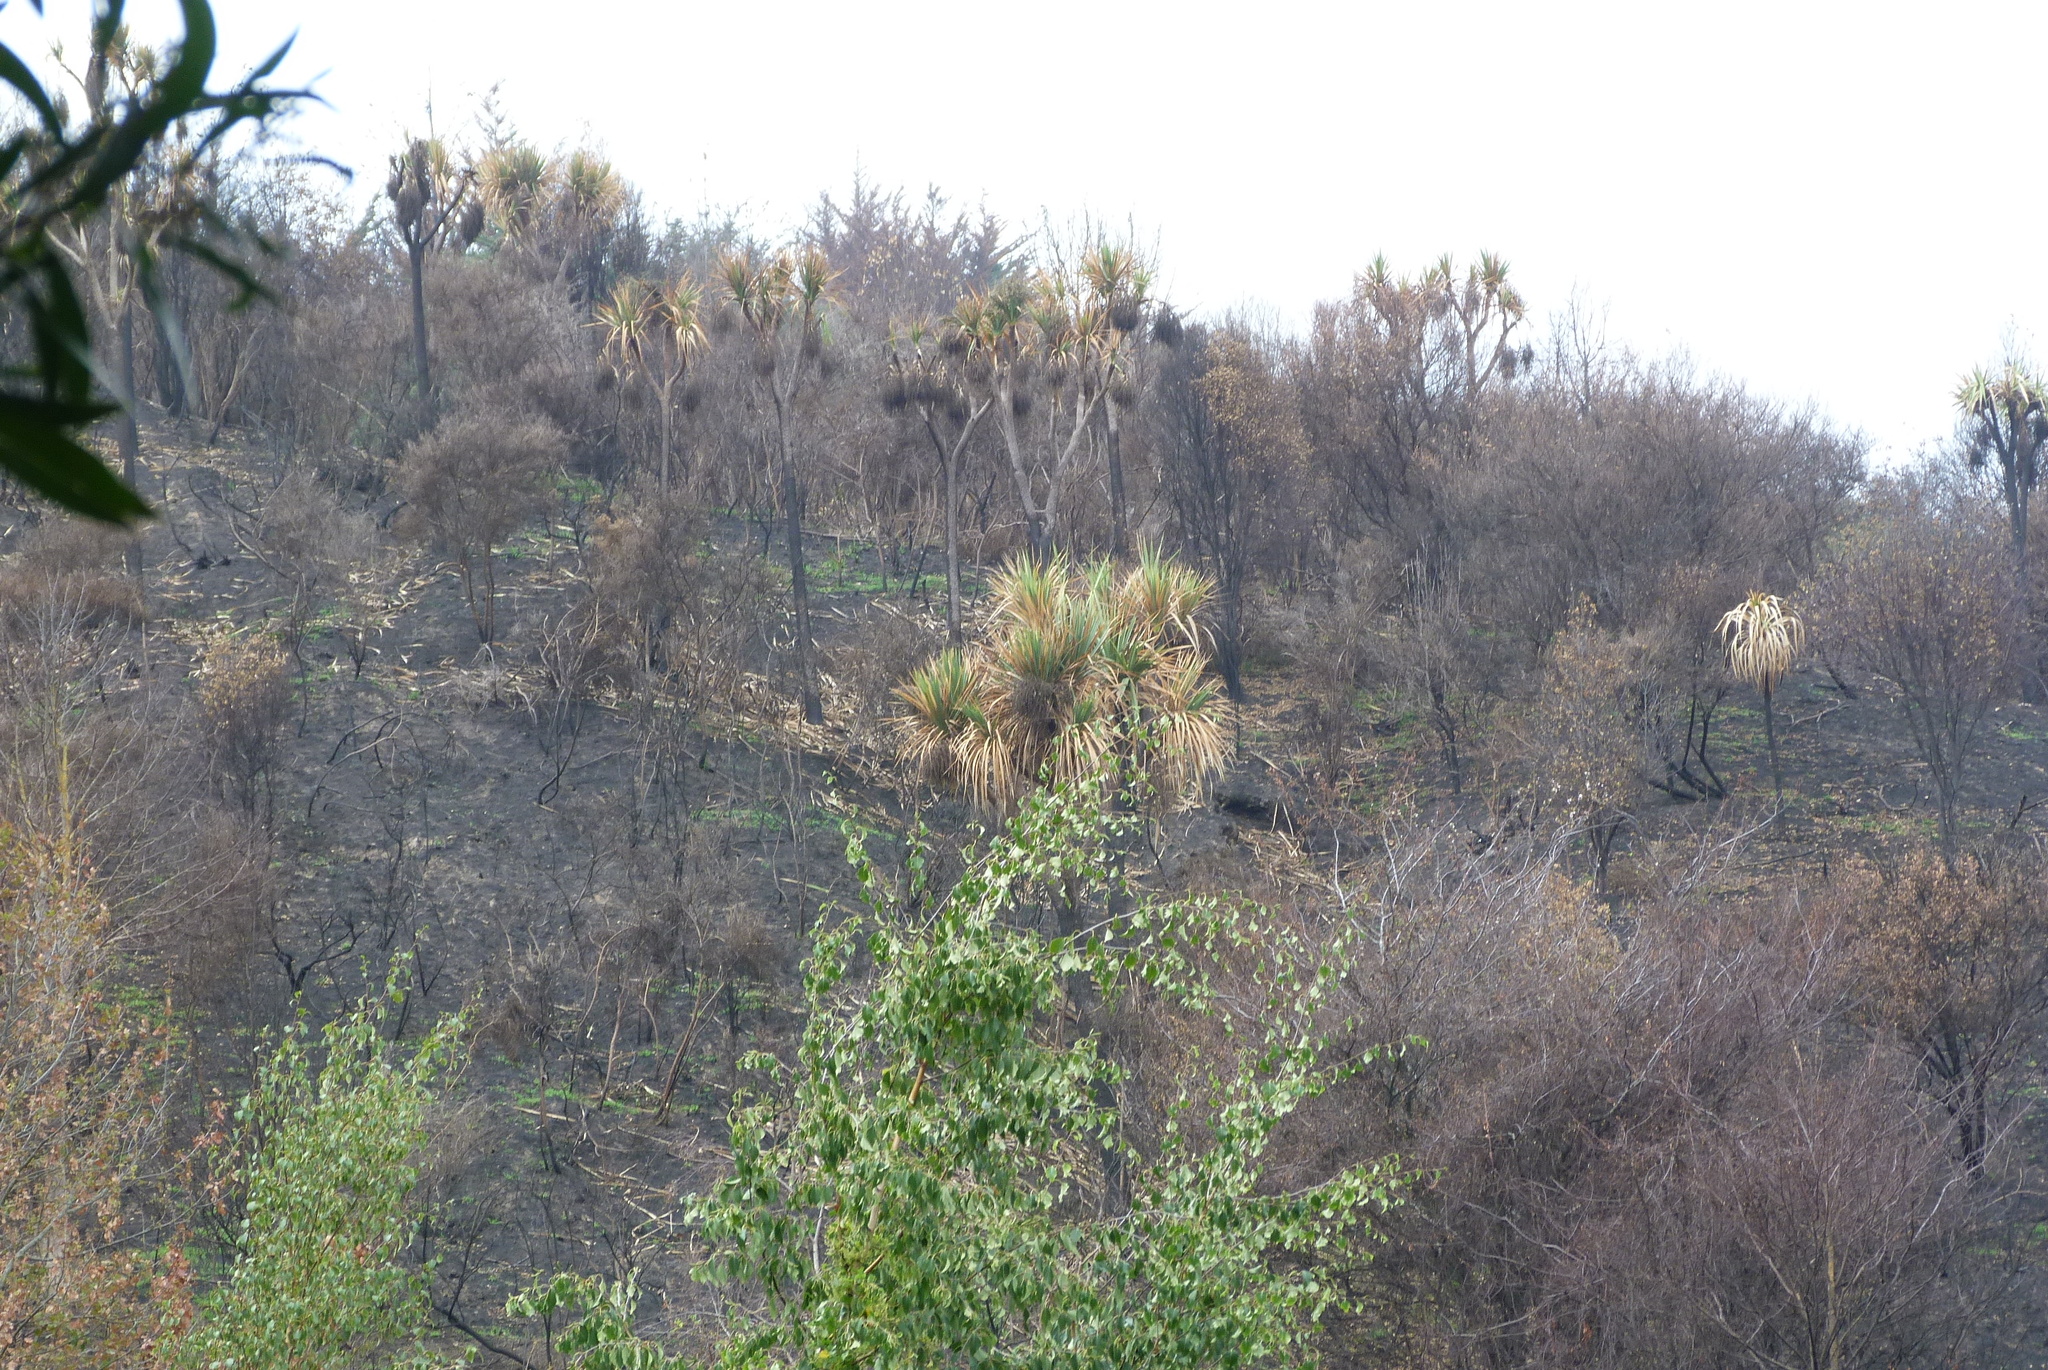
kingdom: Plantae
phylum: Tracheophyta
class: Liliopsida
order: Asparagales
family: Asparagaceae
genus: Cordyline
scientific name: Cordyline australis
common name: Cabbage-palm
